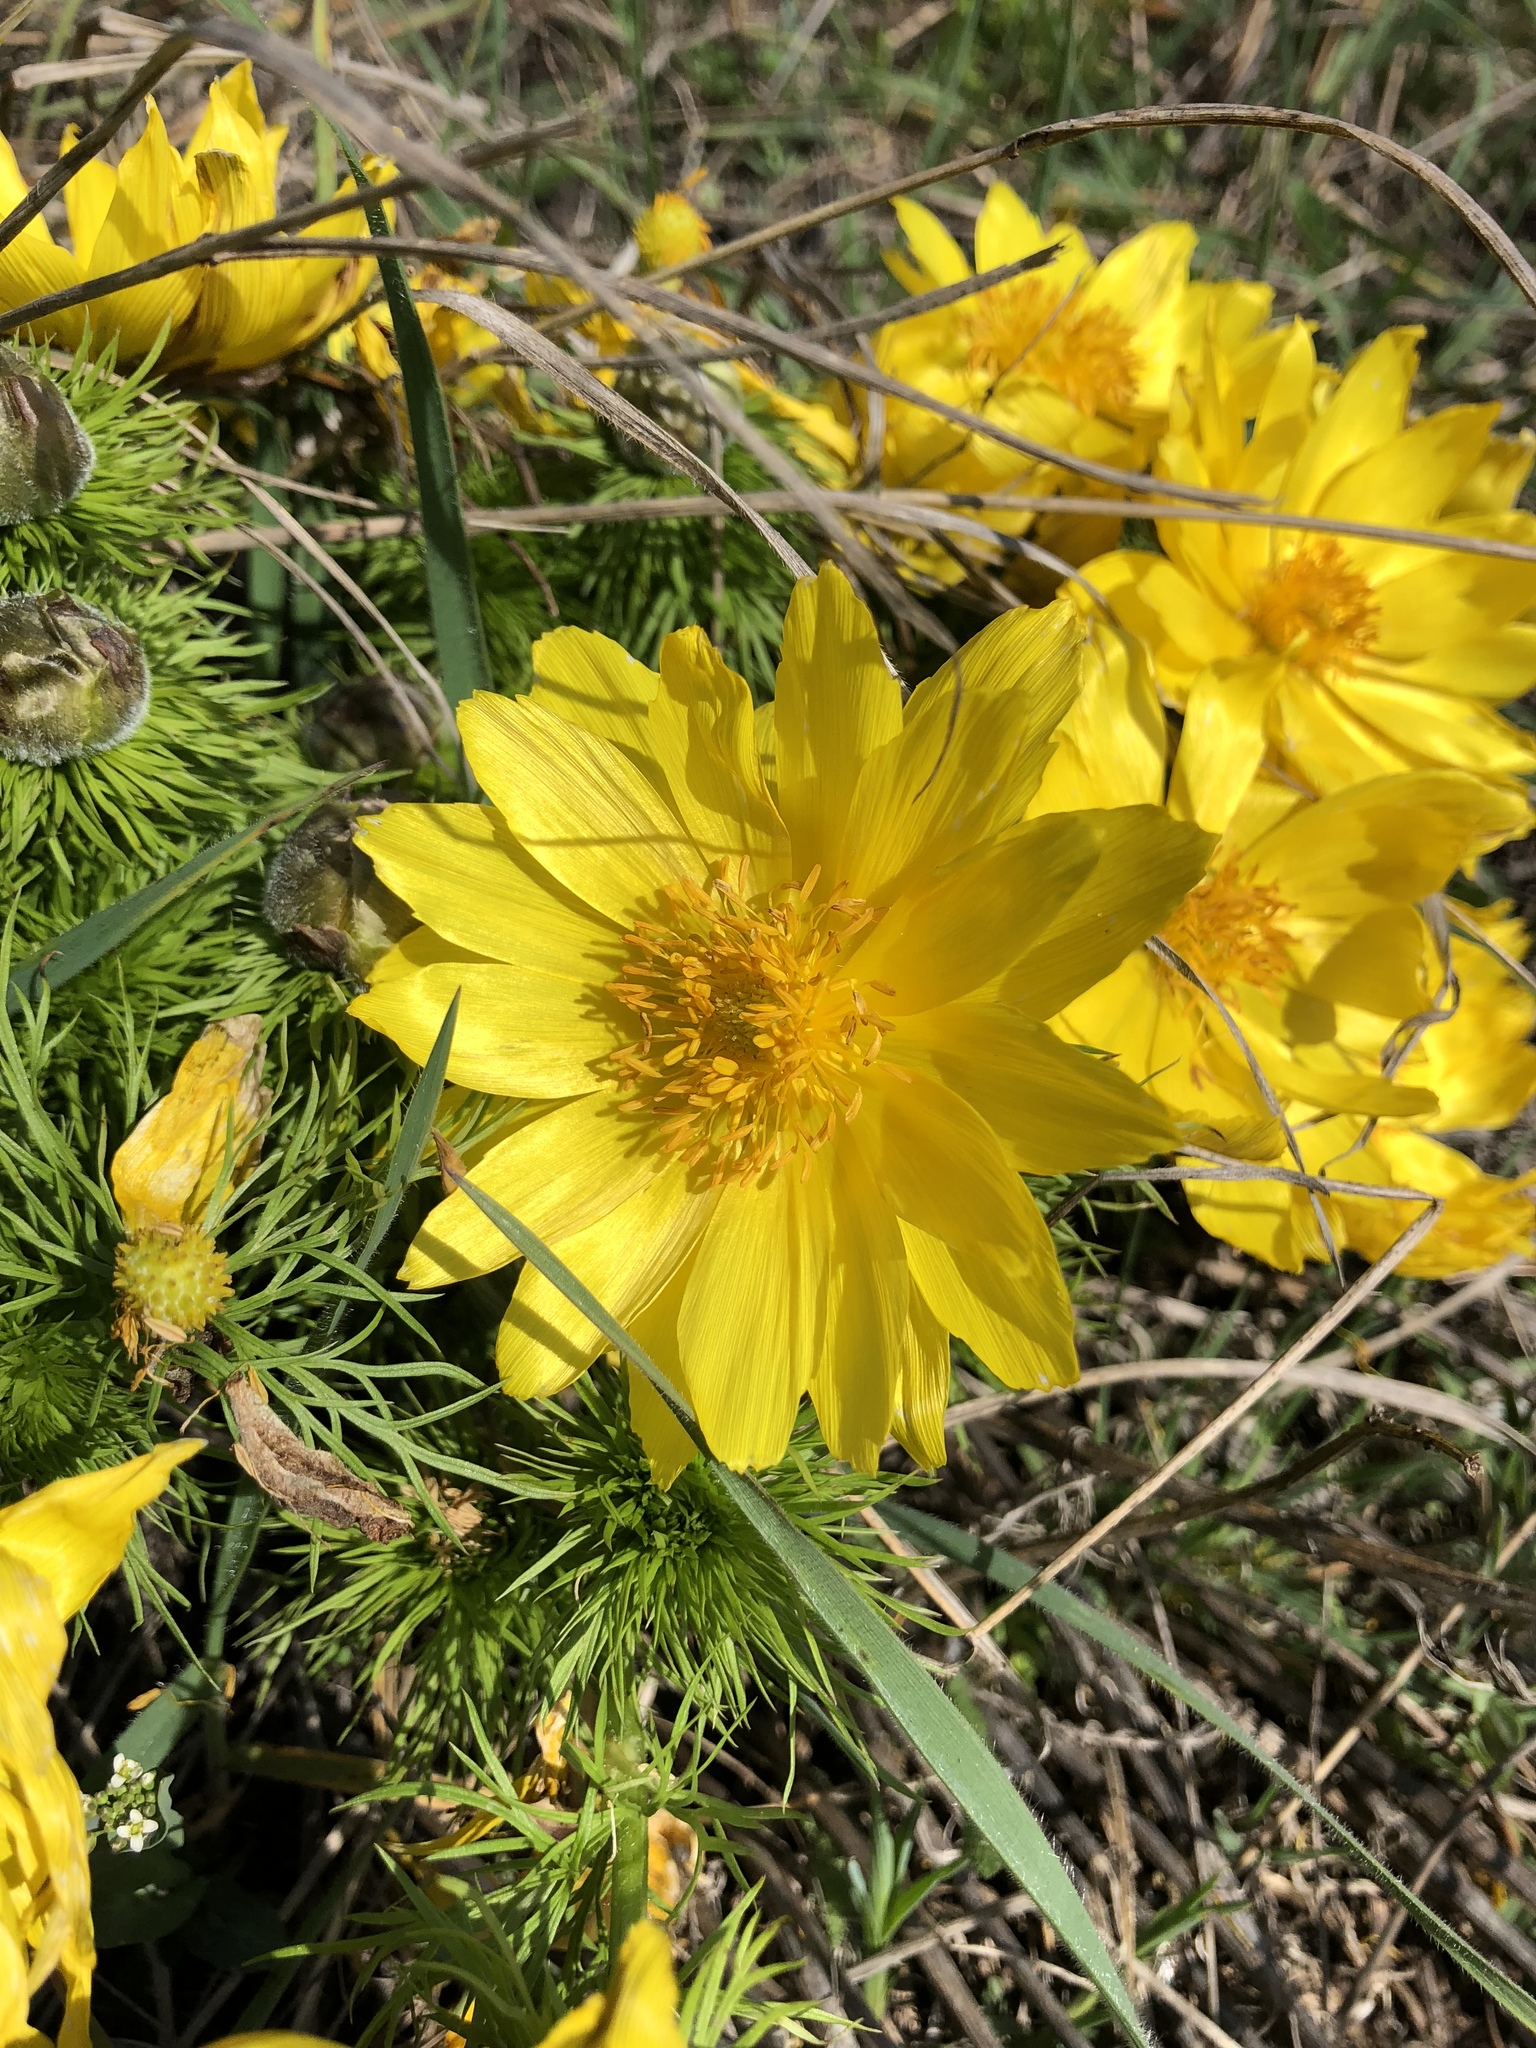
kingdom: Plantae
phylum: Tracheophyta
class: Magnoliopsida
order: Ranunculales
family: Ranunculaceae
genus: Adonis
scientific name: Adonis vernalis
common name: Yellow pheasants-eye
